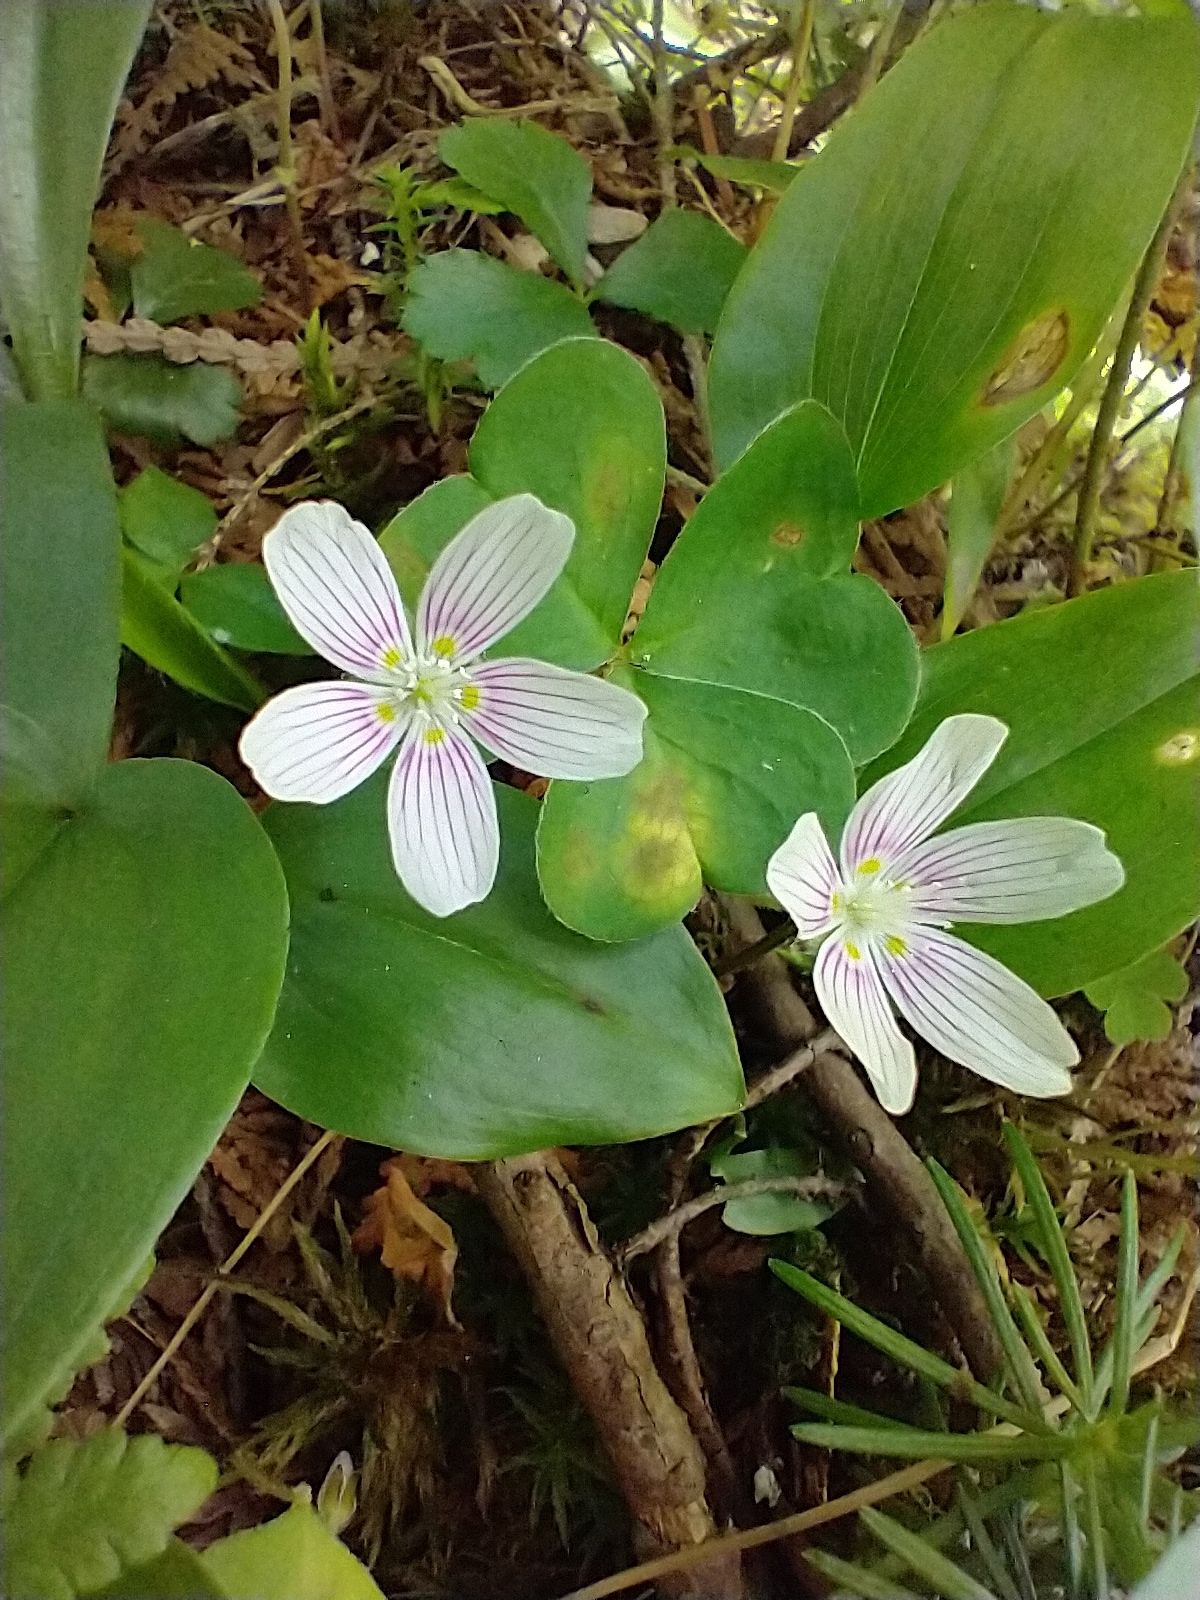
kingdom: Plantae
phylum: Tracheophyta
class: Magnoliopsida
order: Oxalidales
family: Oxalidaceae
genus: Oxalis
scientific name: Oxalis montana
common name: American wood-sorrel
